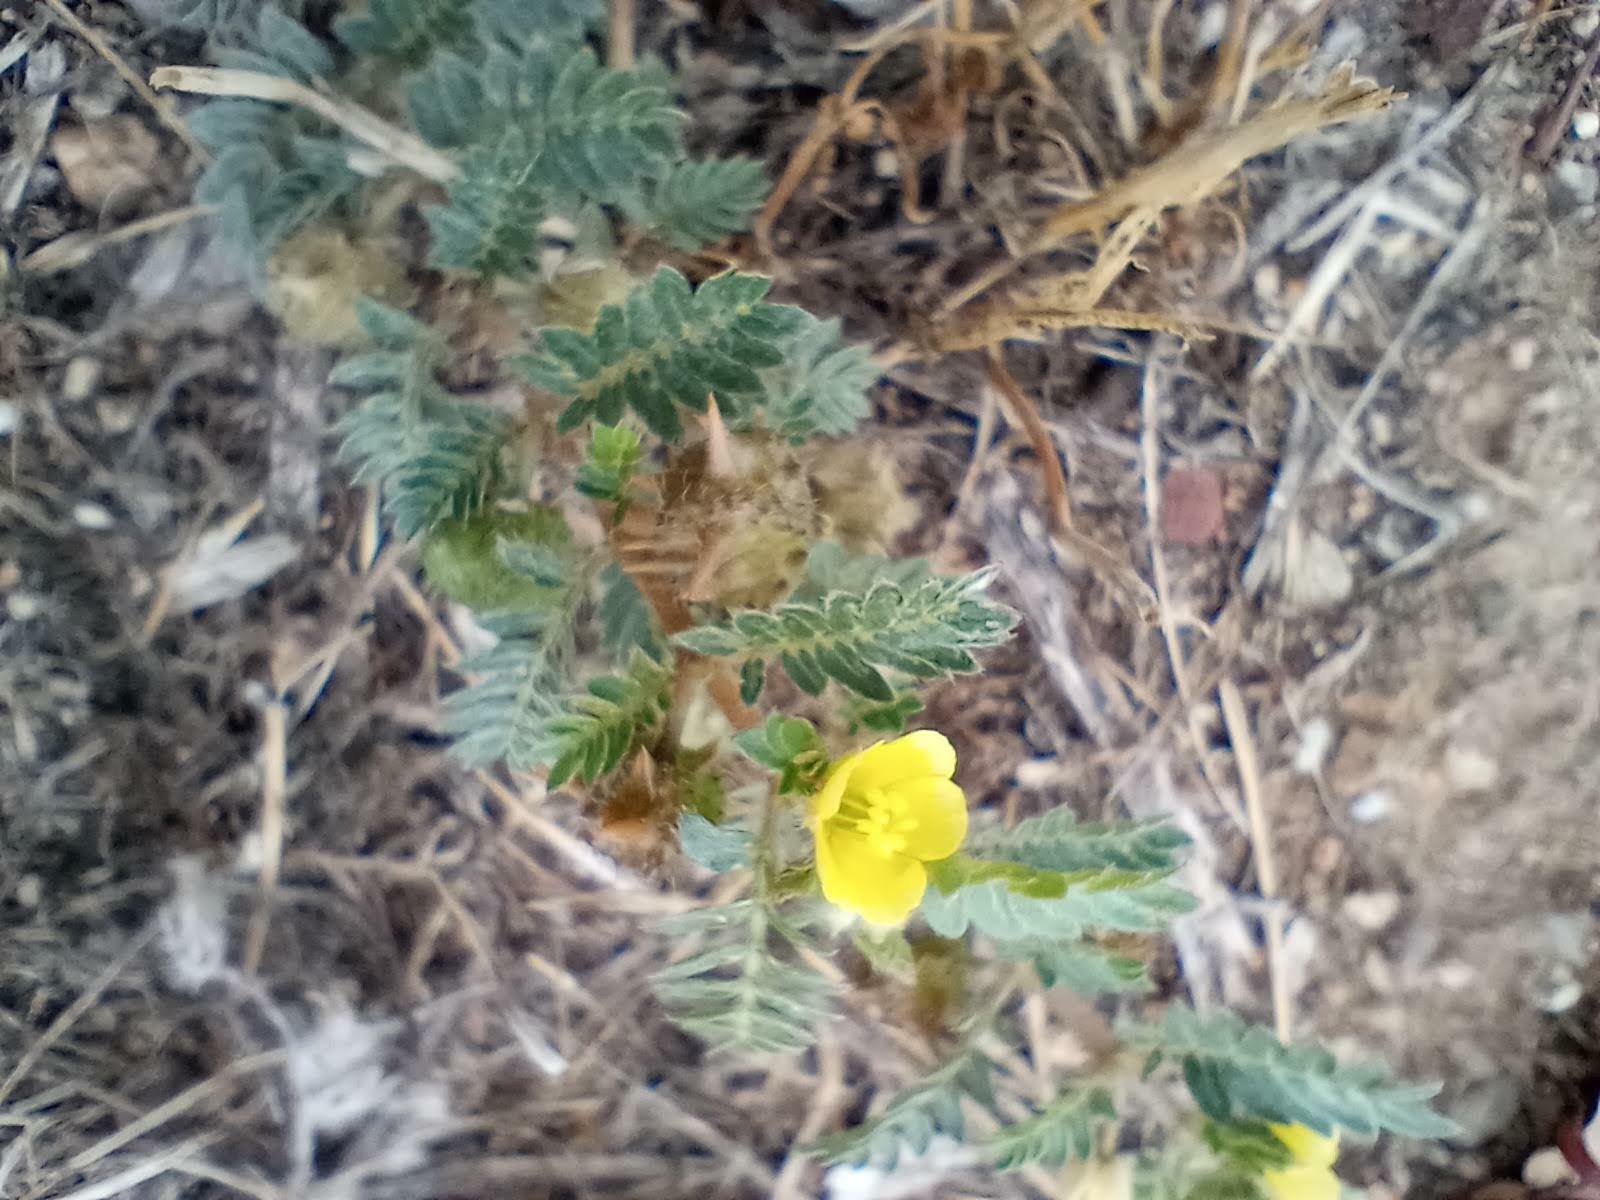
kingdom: Plantae
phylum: Tracheophyta
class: Magnoliopsida
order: Zygophyllales
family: Zygophyllaceae
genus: Tribulus
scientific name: Tribulus terrestris
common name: Puncturevine
